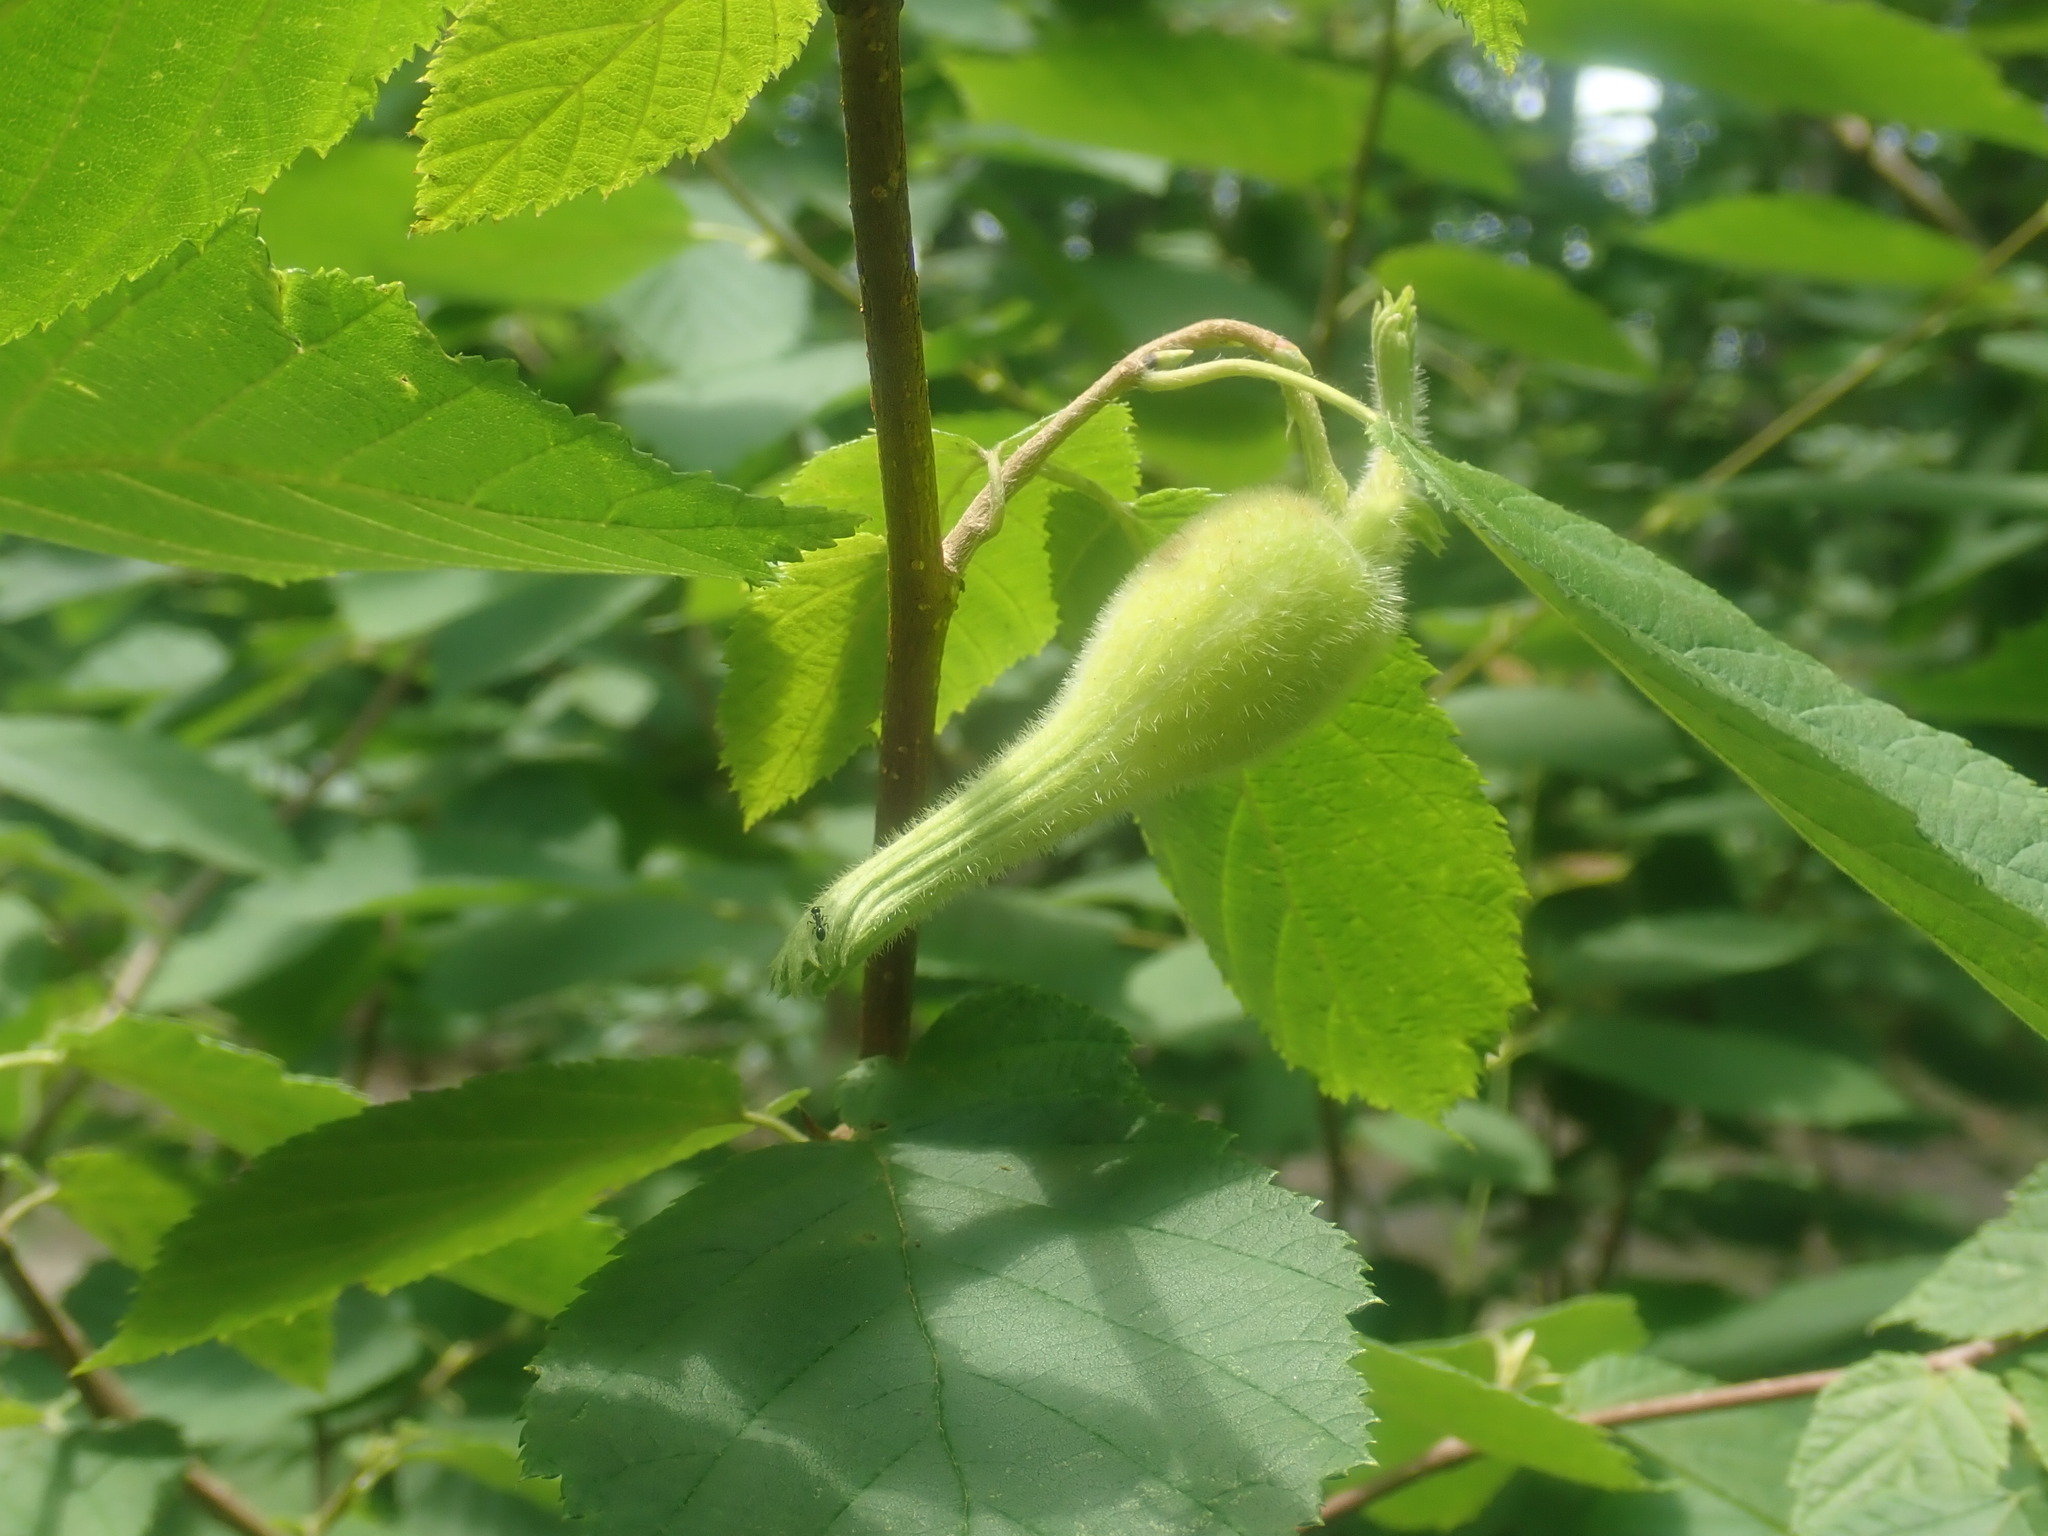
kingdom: Plantae
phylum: Tracheophyta
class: Magnoliopsida
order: Fagales
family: Betulaceae
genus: Corylus
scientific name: Corylus cornuta
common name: Beaked hazel
